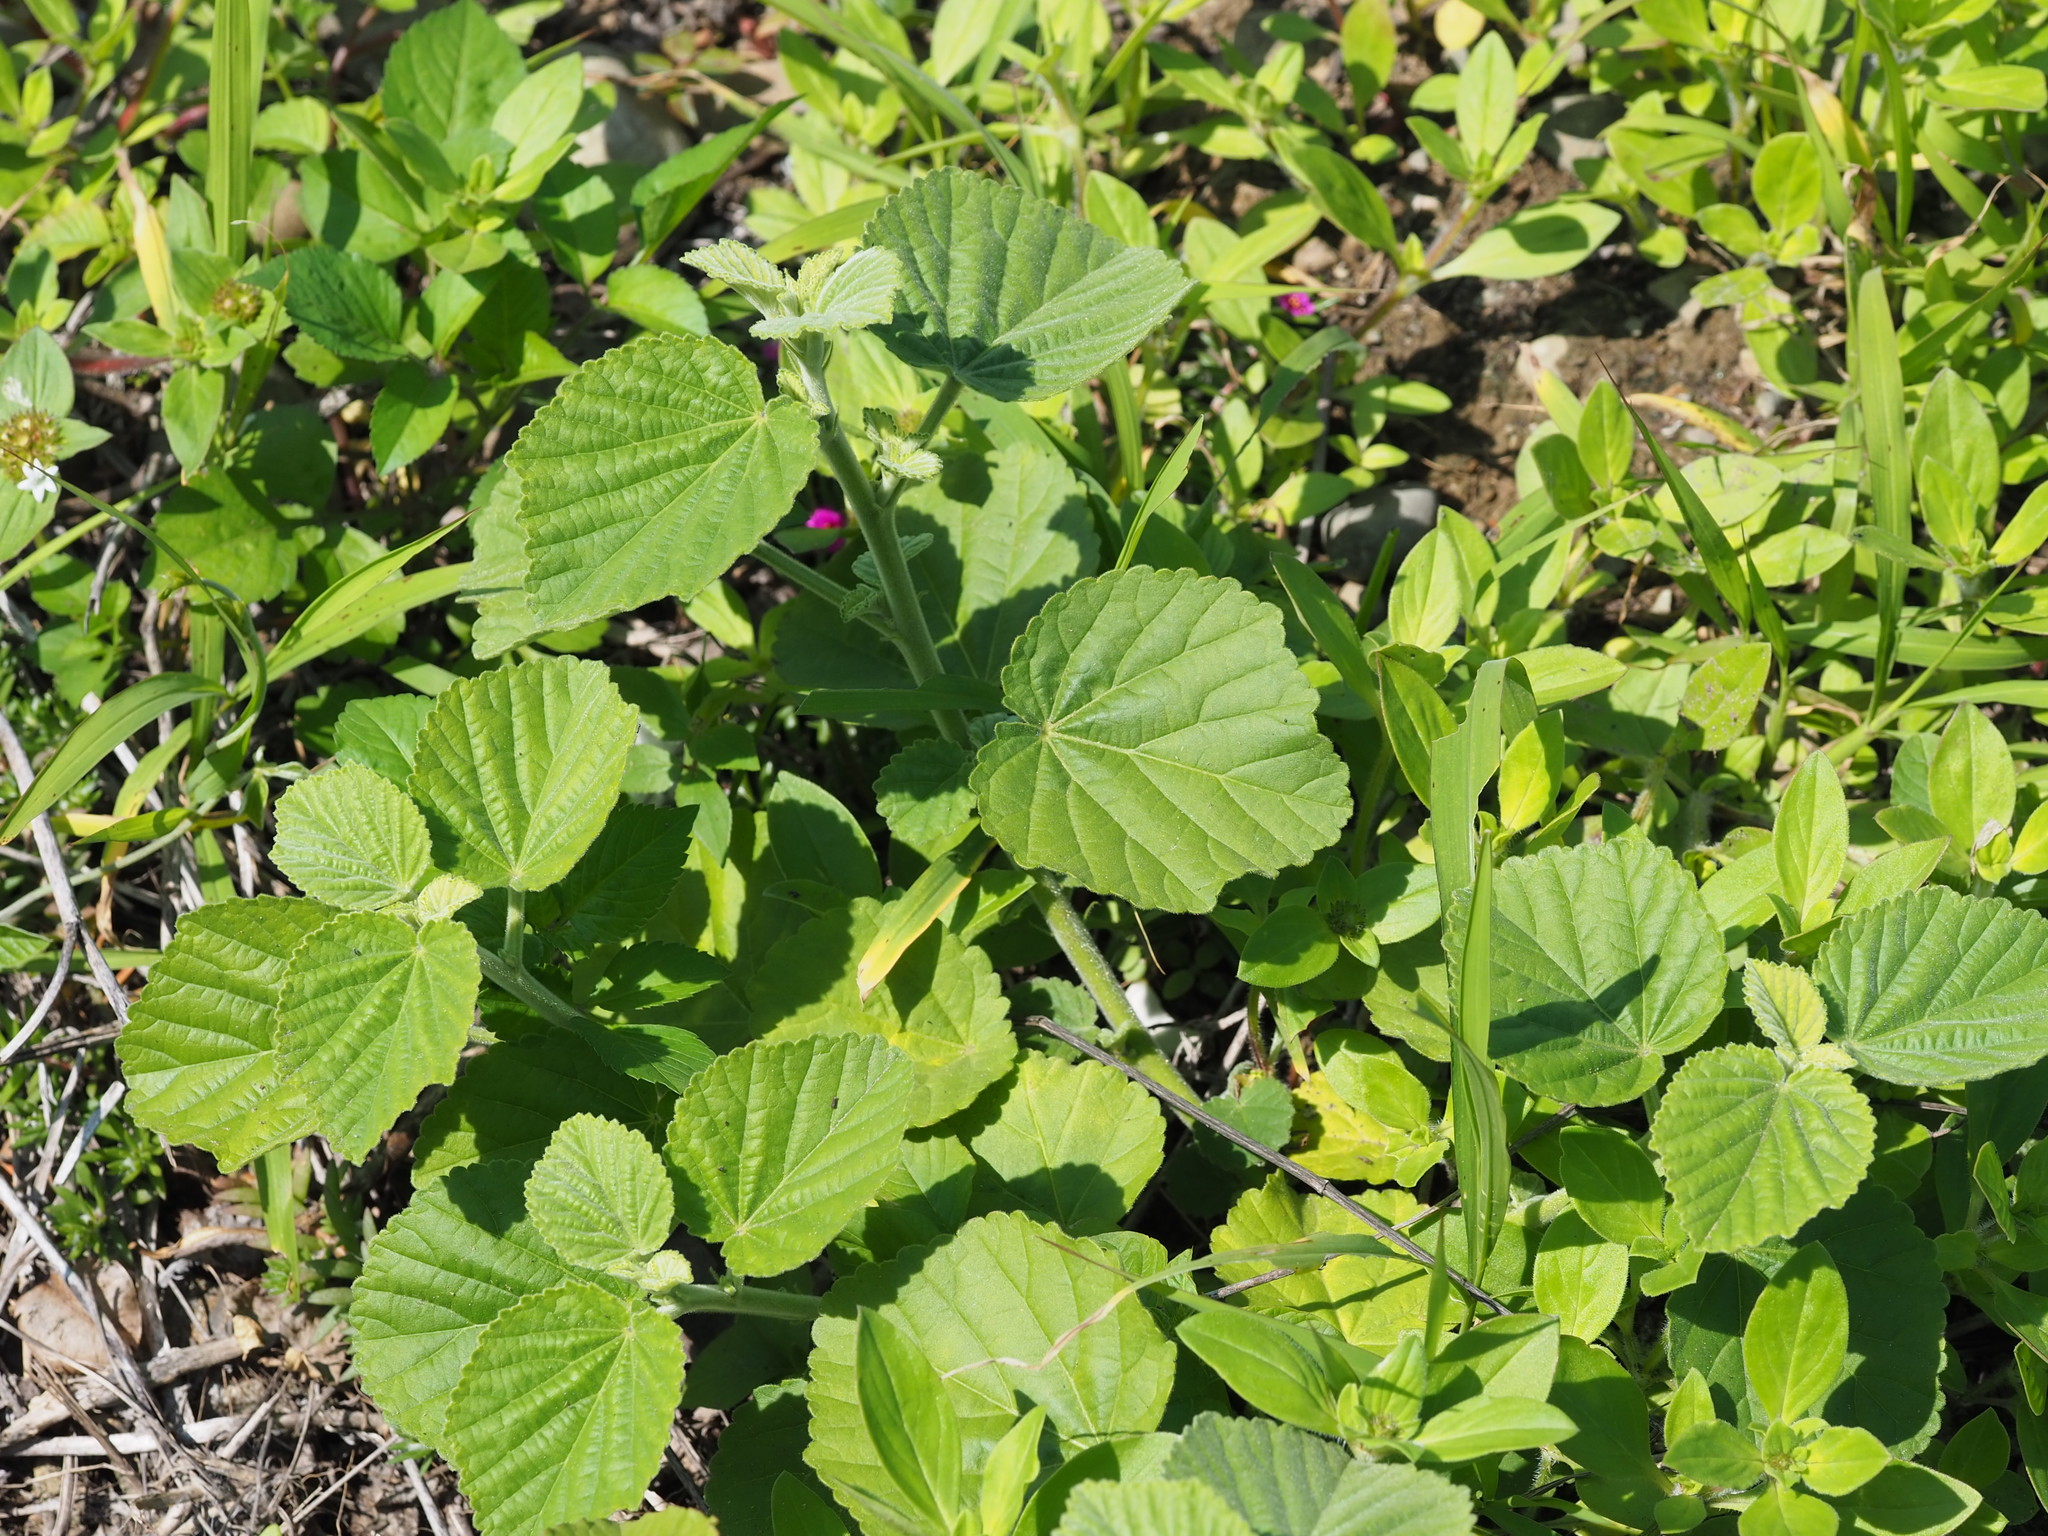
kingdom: Plantae
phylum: Tracheophyta
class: Magnoliopsida
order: Malvales
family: Malvaceae
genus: Sida
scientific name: Sida cordifolia
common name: Ilima
